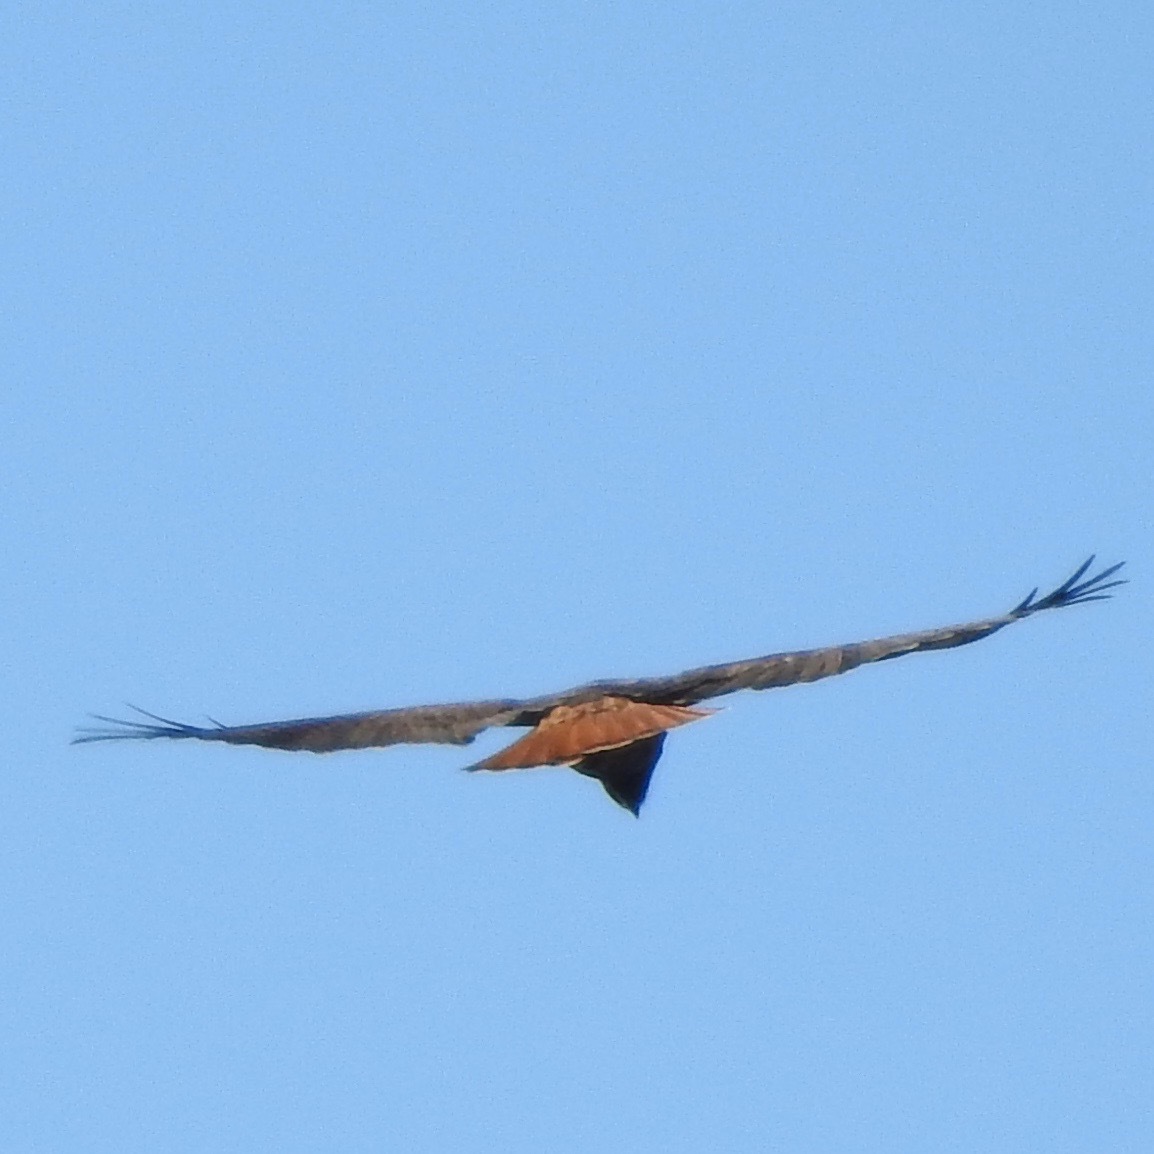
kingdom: Animalia
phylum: Chordata
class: Aves
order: Accipitriformes
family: Accipitridae
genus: Buteo
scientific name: Buteo jamaicensis
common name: Red-tailed hawk
